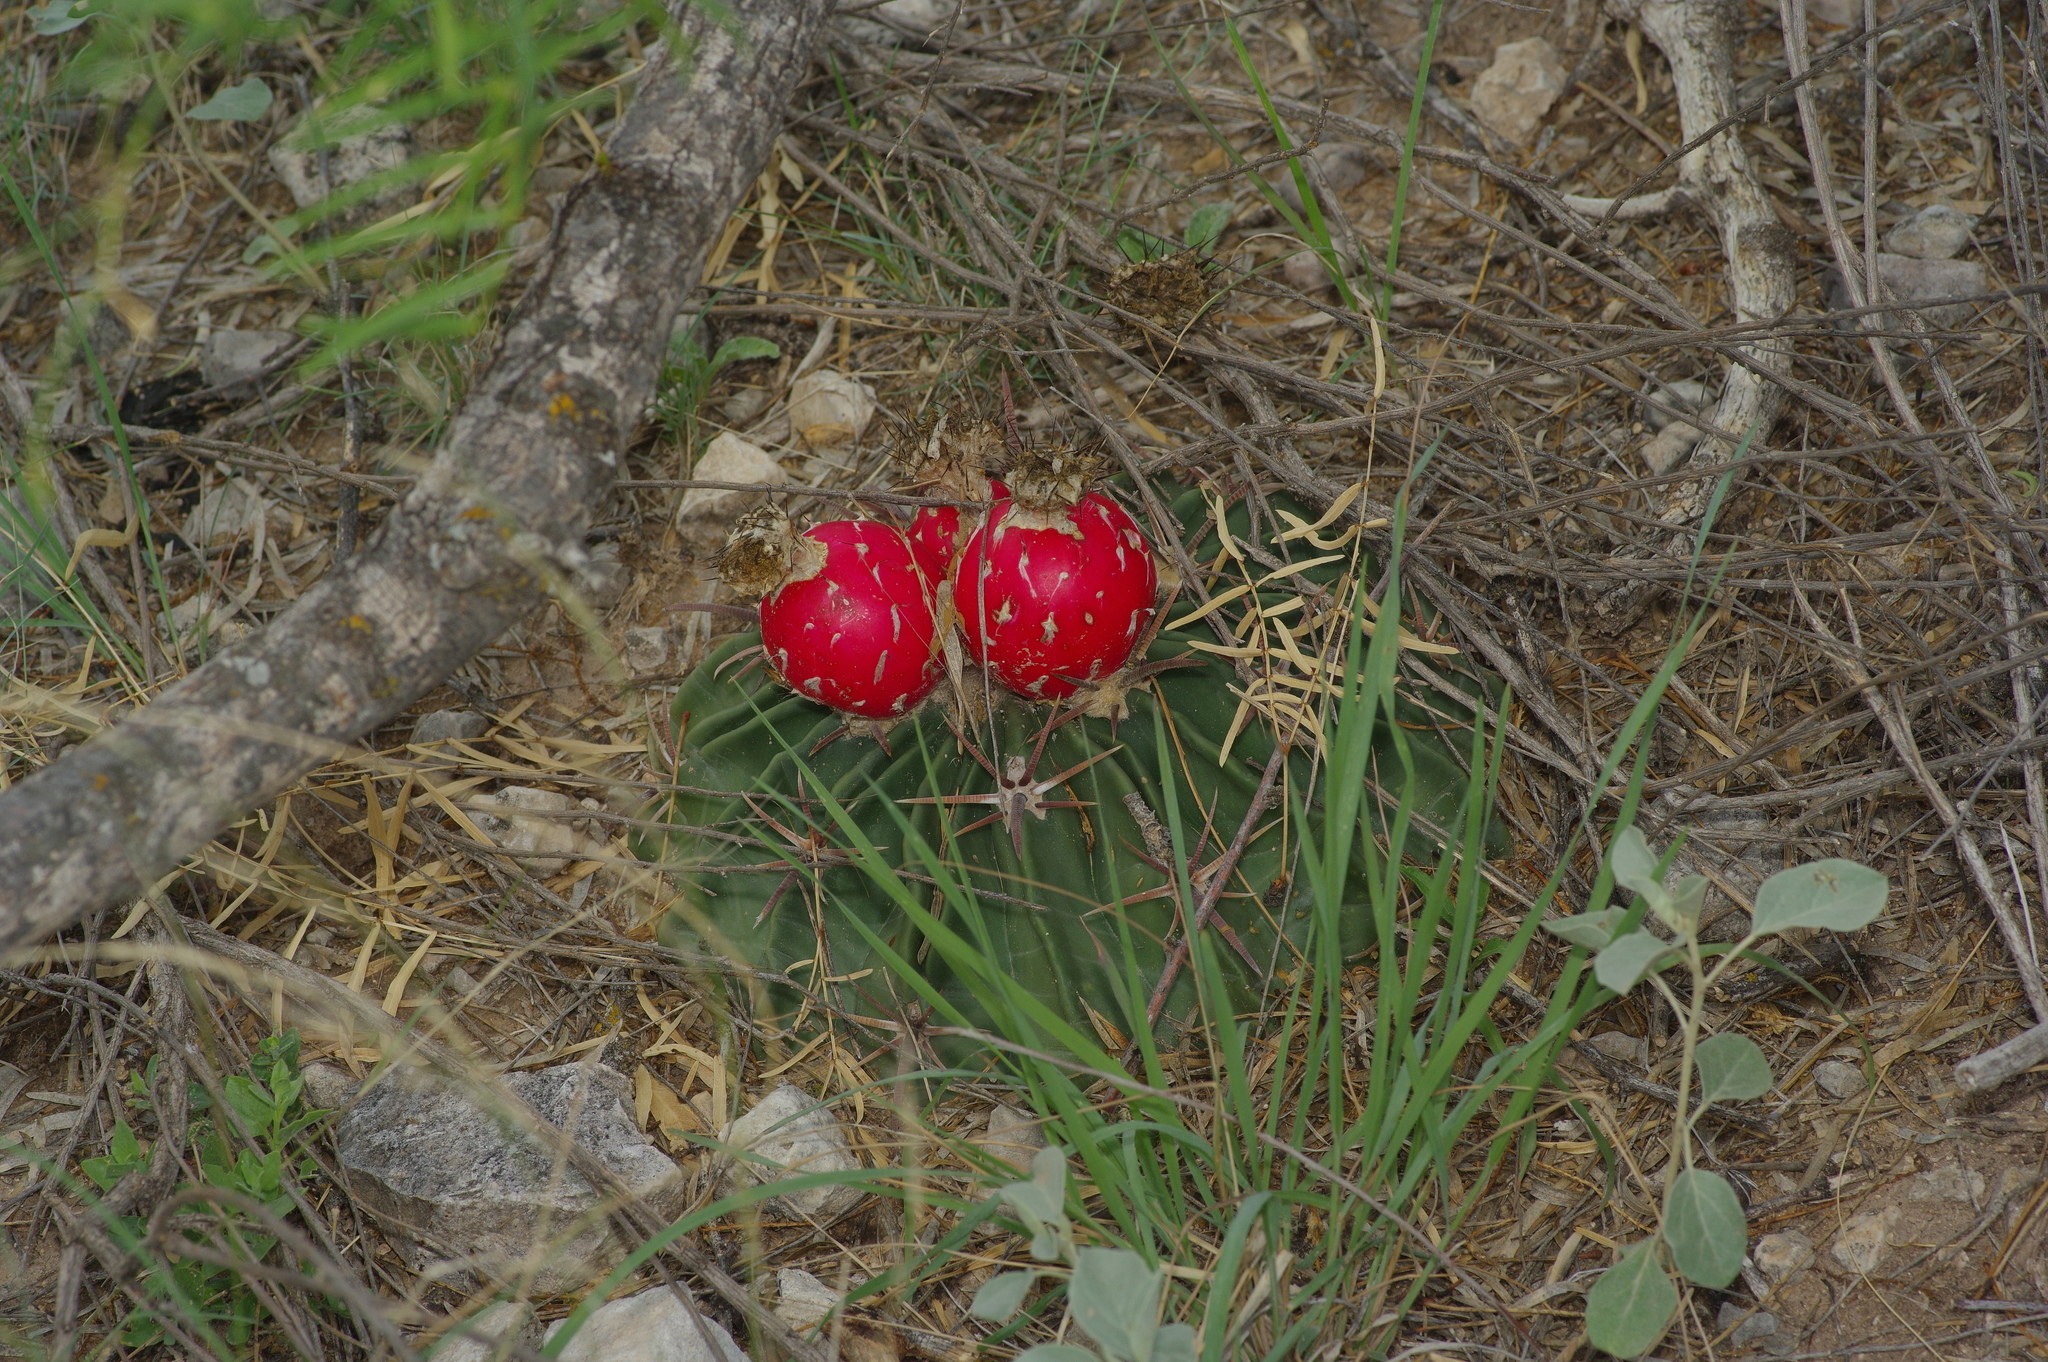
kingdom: Plantae
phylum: Tracheophyta
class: Magnoliopsida
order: Caryophyllales
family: Cactaceae
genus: Echinocactus
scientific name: Echinocactus texensis
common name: Devil's pincushion
